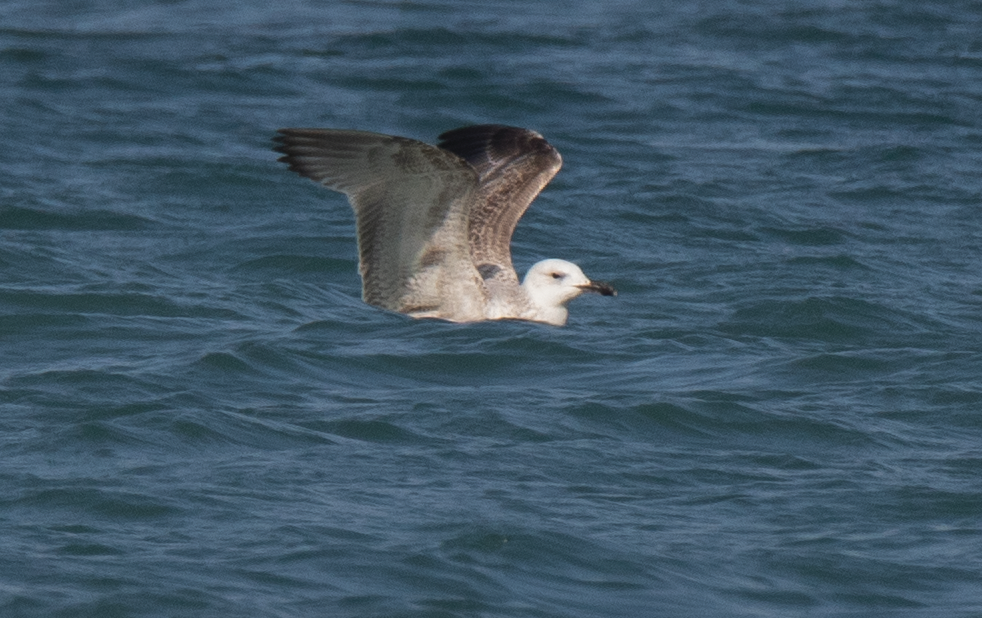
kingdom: Animalia
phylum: Chordata
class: Aves
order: Charadriiformes
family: Laridae
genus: Larus
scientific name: Larus cachinnans
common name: Caspian gull
